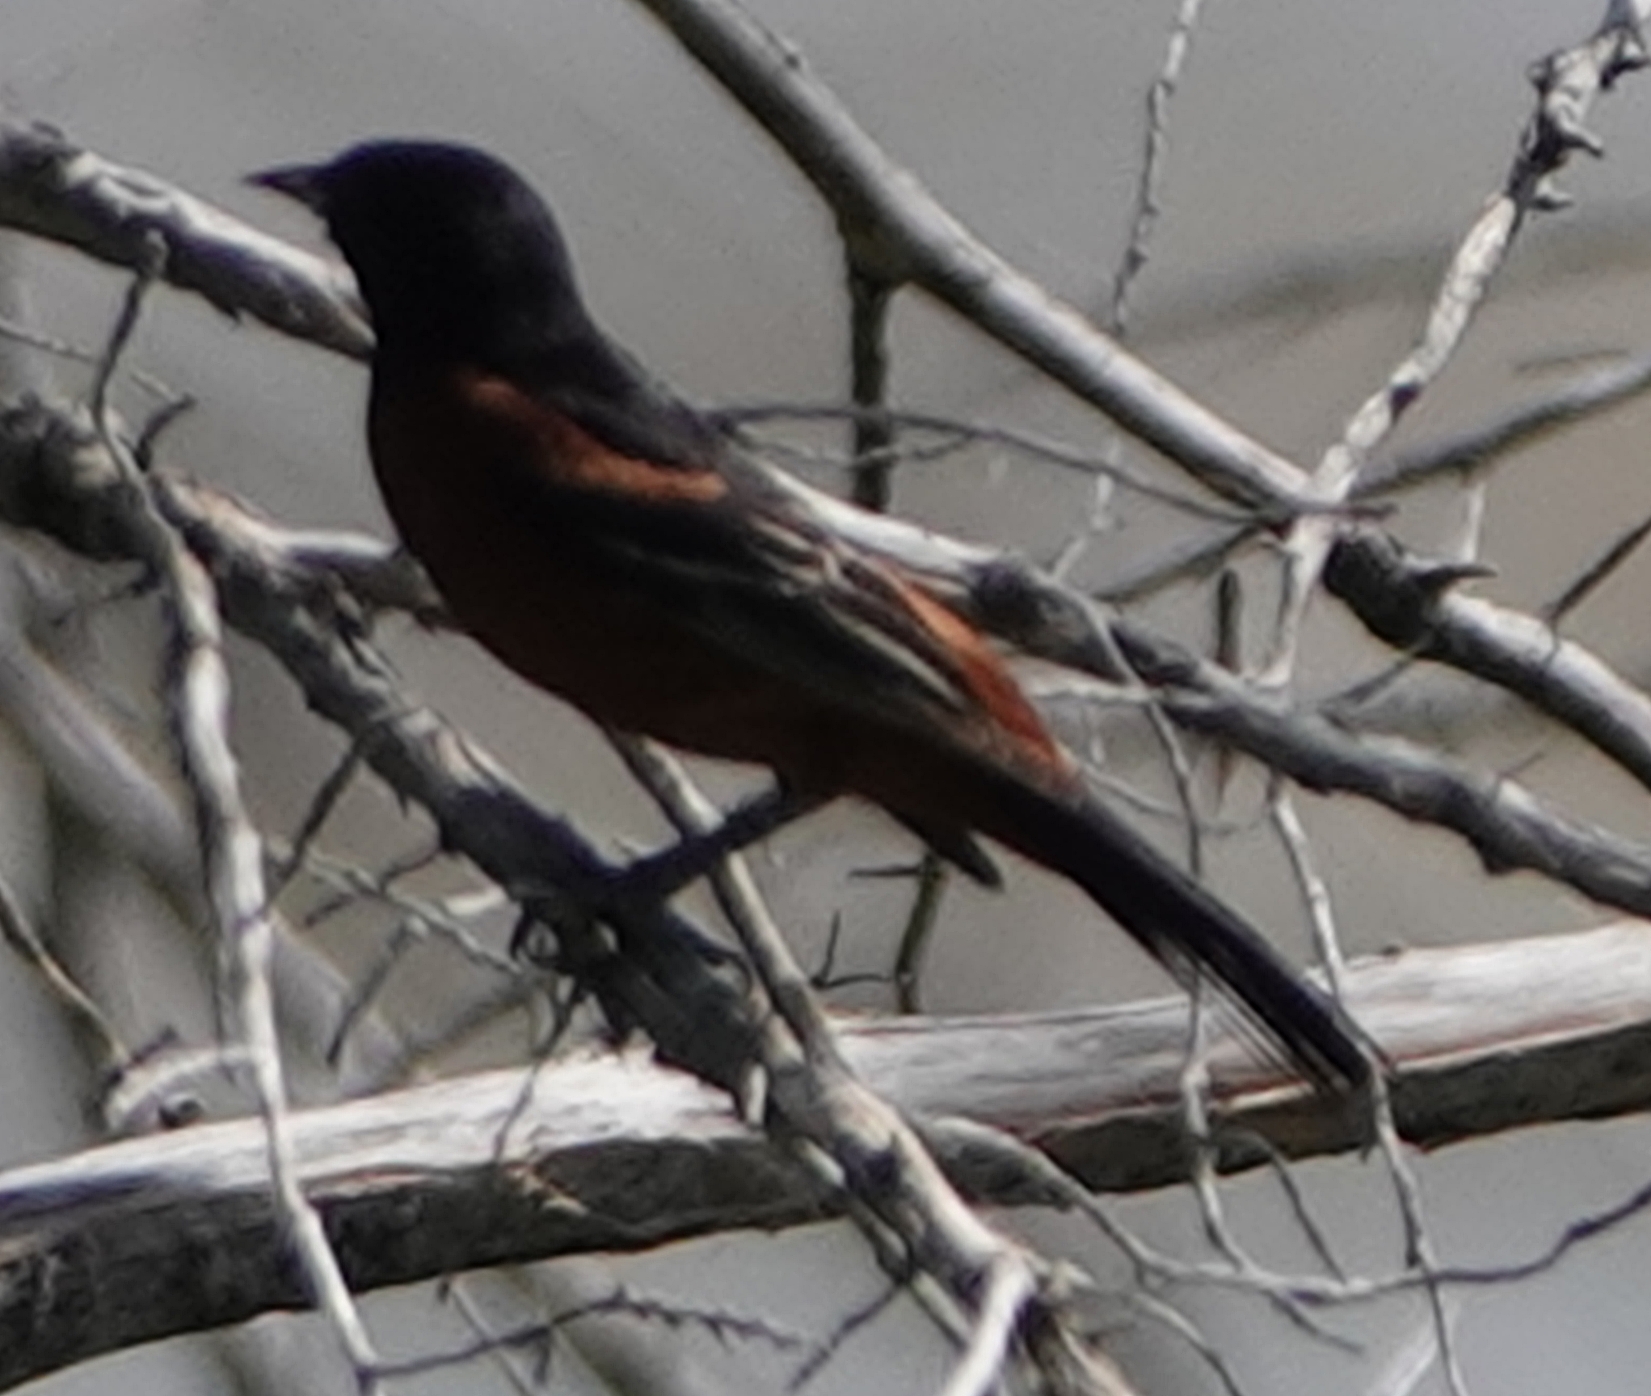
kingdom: Animalia
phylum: Chordata
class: Aves
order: Passeriformes
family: Icteridae
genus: Icterus
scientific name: Icterus spurius
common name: Orchard oriole
